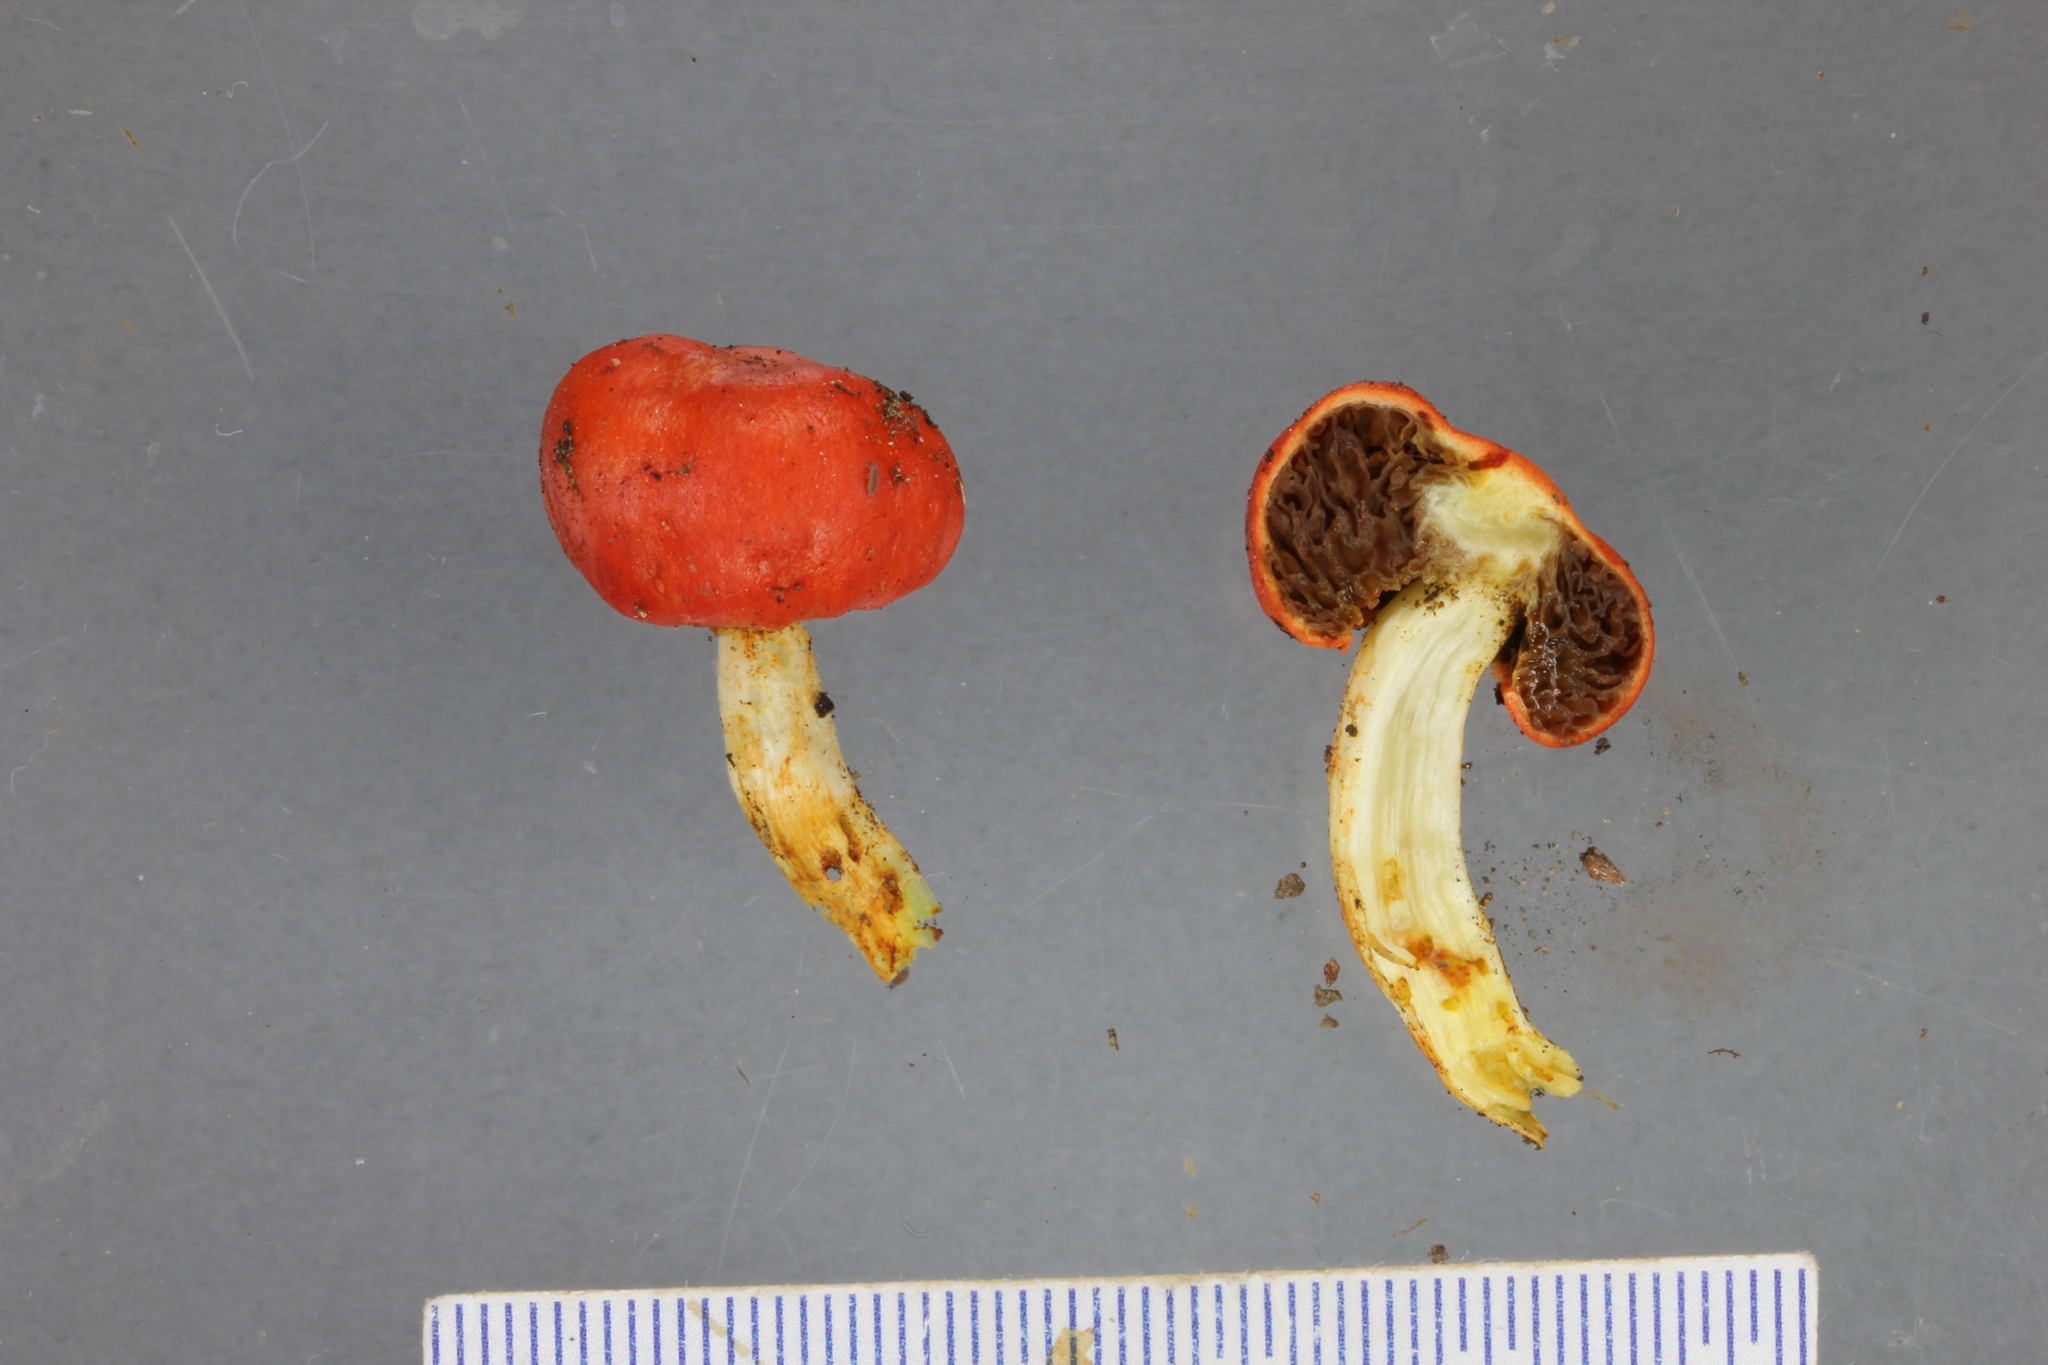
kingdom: Fungi
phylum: Basidiomycota
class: Agaricomycetes
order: Agaricales
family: Strophariaceae
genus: Leratiomyces
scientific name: Leratiomyces erythrocephalus
